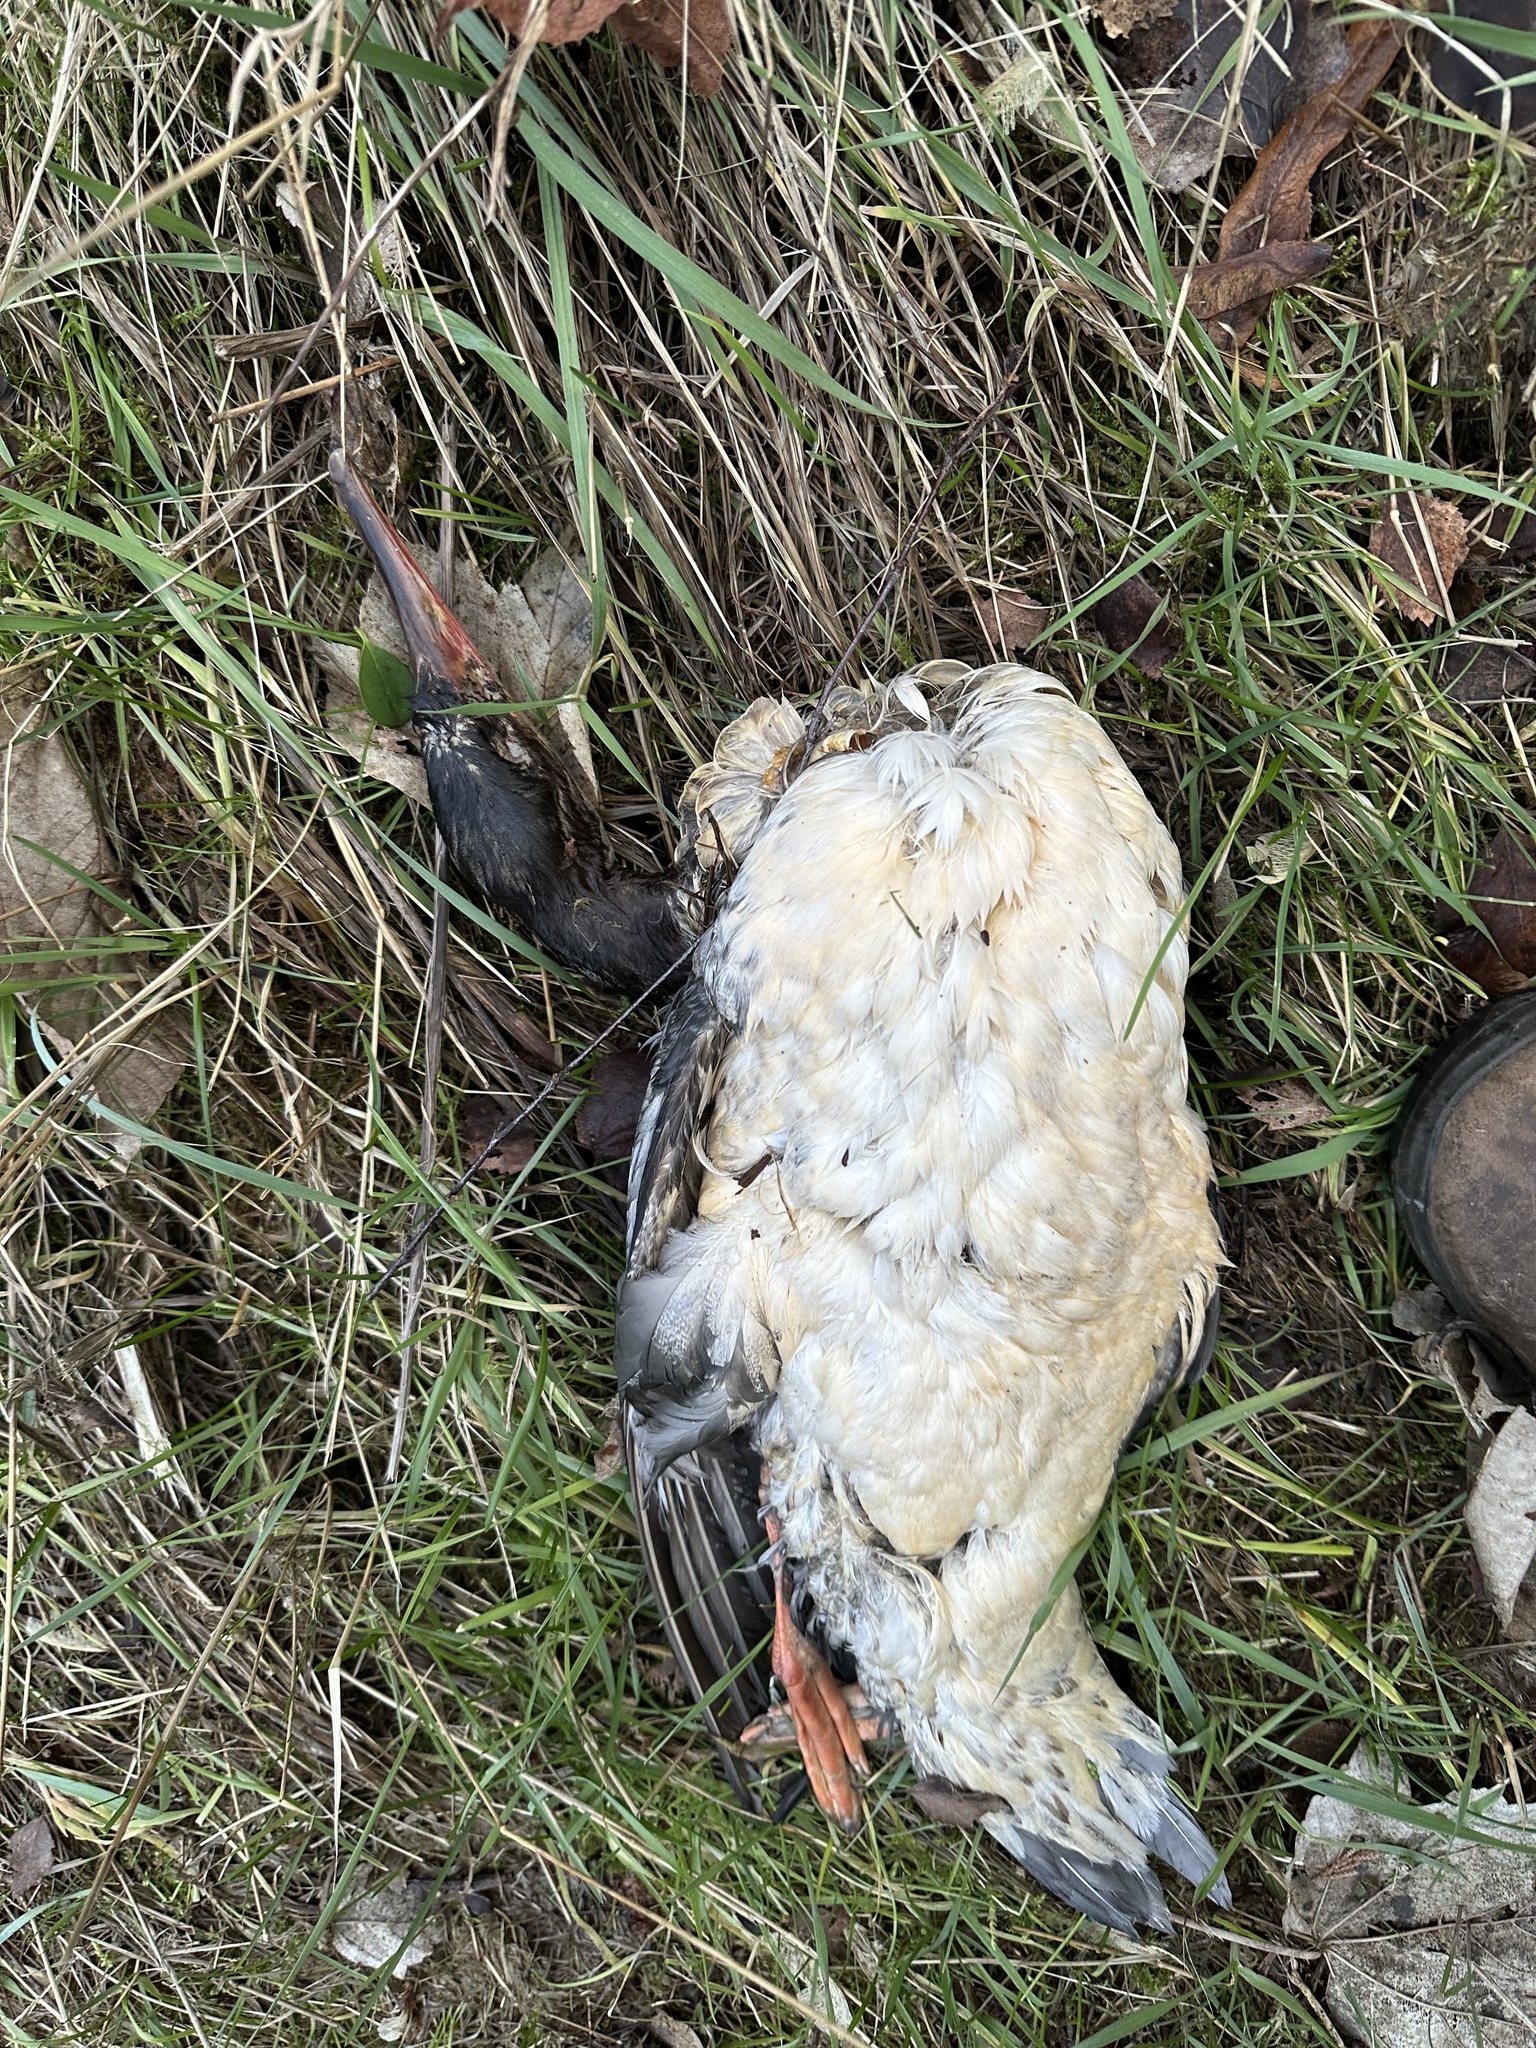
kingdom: Animalia
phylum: Chordata
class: Aves
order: Anseriformes
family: Anatidae
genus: Mergus
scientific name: Mergus merganser
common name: Common merganser
